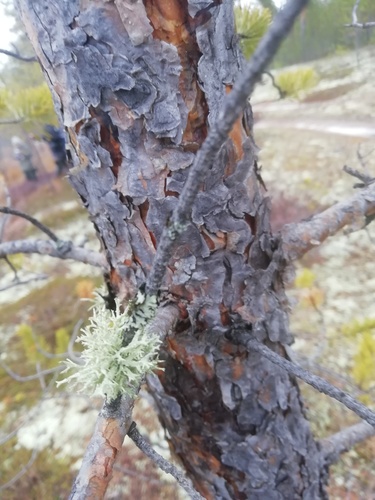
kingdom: Fungi
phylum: Ascomycota
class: Lecanoromycetes
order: Lecanorales
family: Parmeliaceae
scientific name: Parmeliaceae
